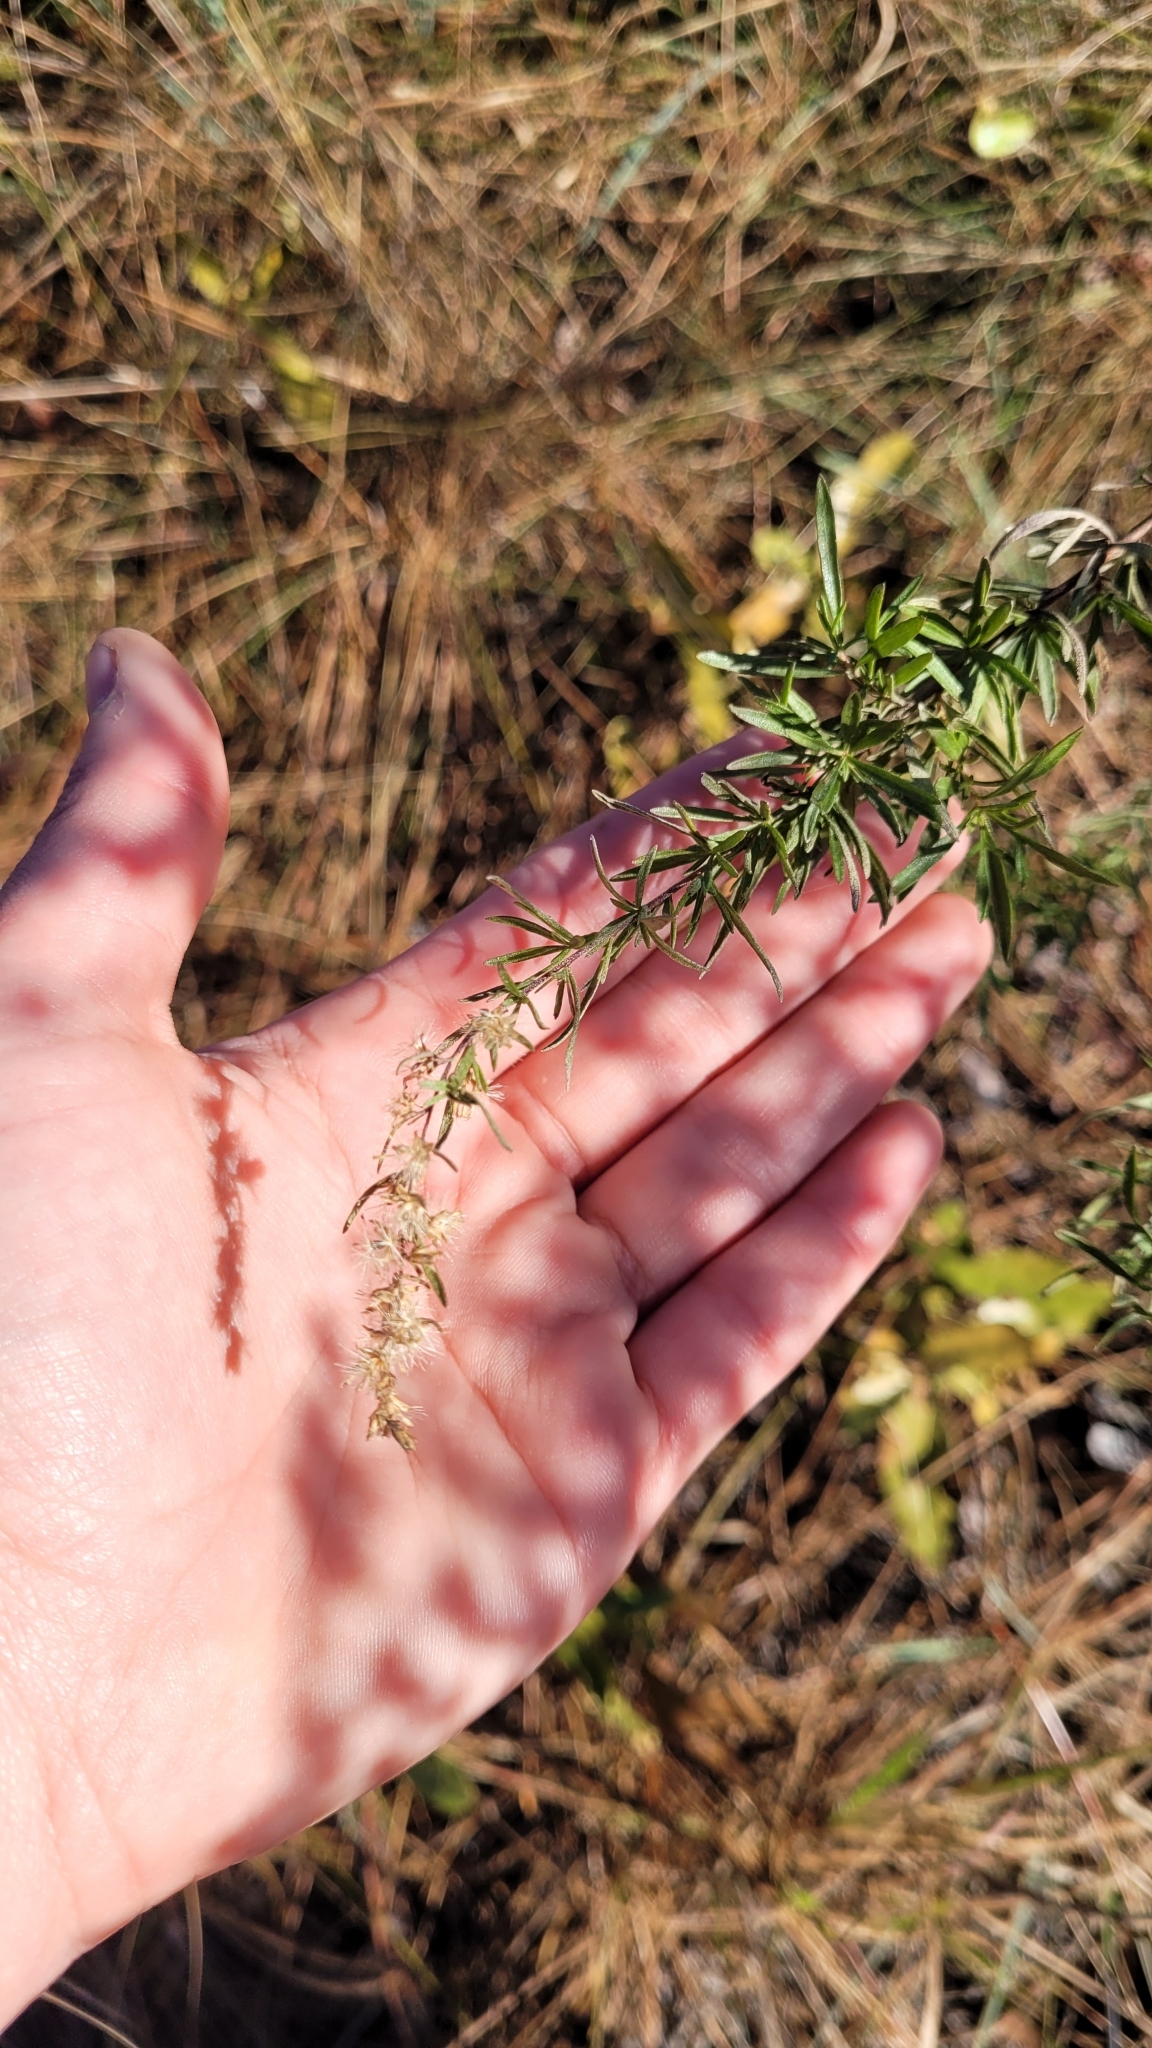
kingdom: Plantae
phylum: Tracheophyta
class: Magnoliopsida
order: Asterales
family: Asteraceae
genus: Eupatorium
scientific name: Eupatorium compositifolium
